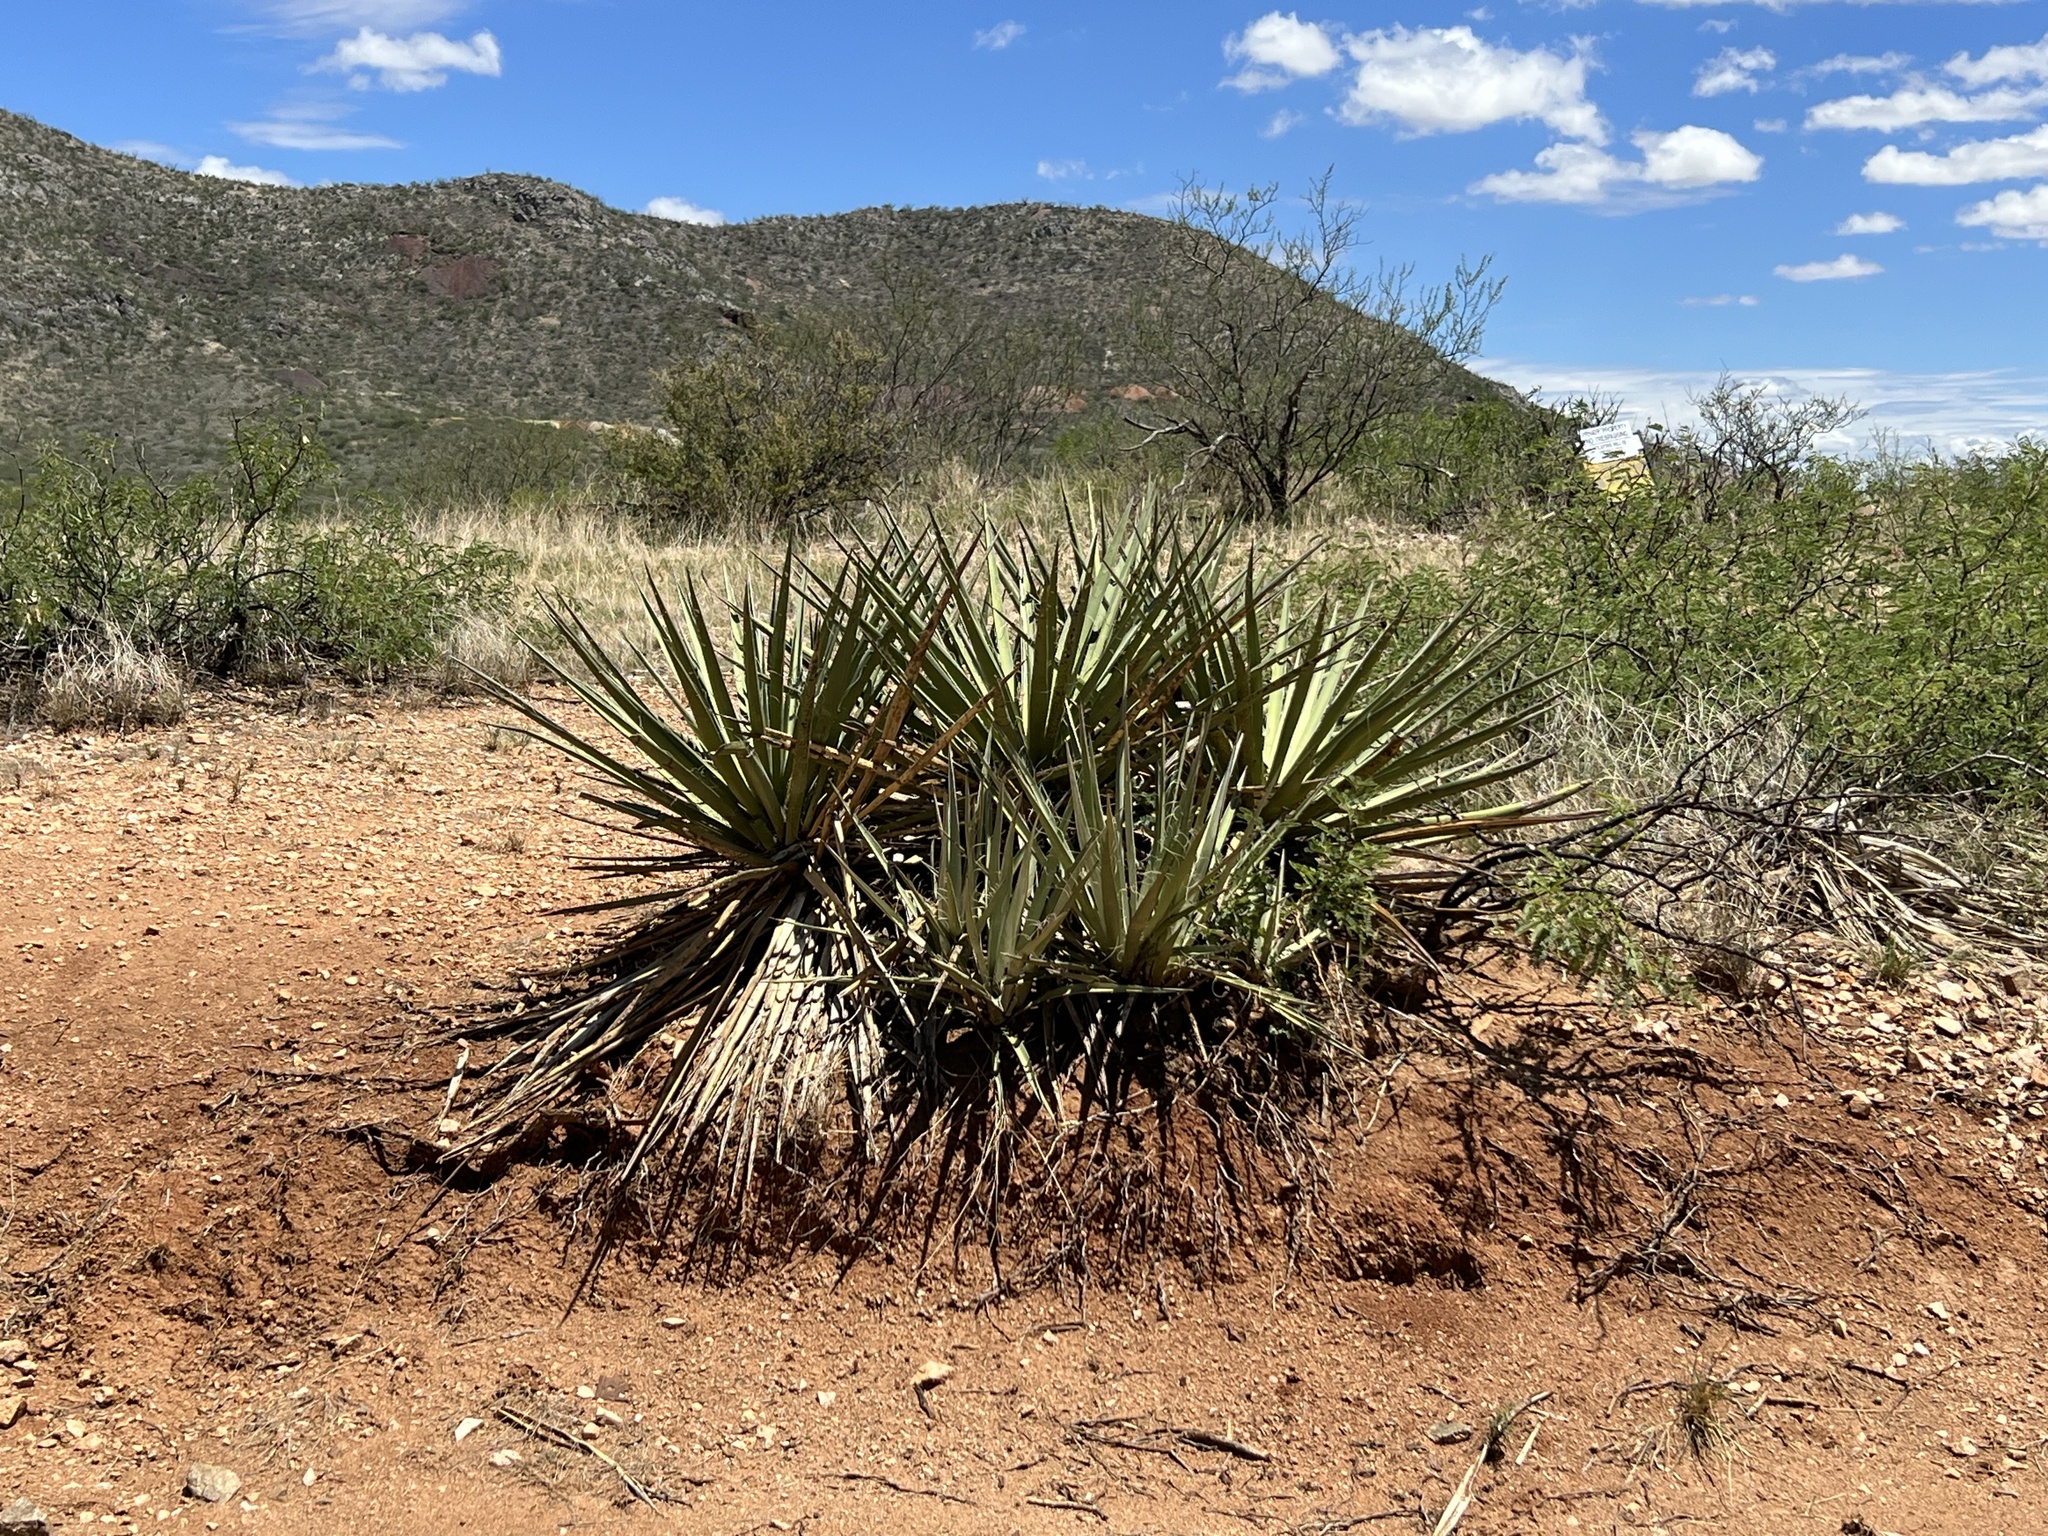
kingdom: Plantae
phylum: Tracheophyta
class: Liliopsida
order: Asparagales
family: Asparagaceae
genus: Yucca
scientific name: Yucca baccata
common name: Banana yucca
